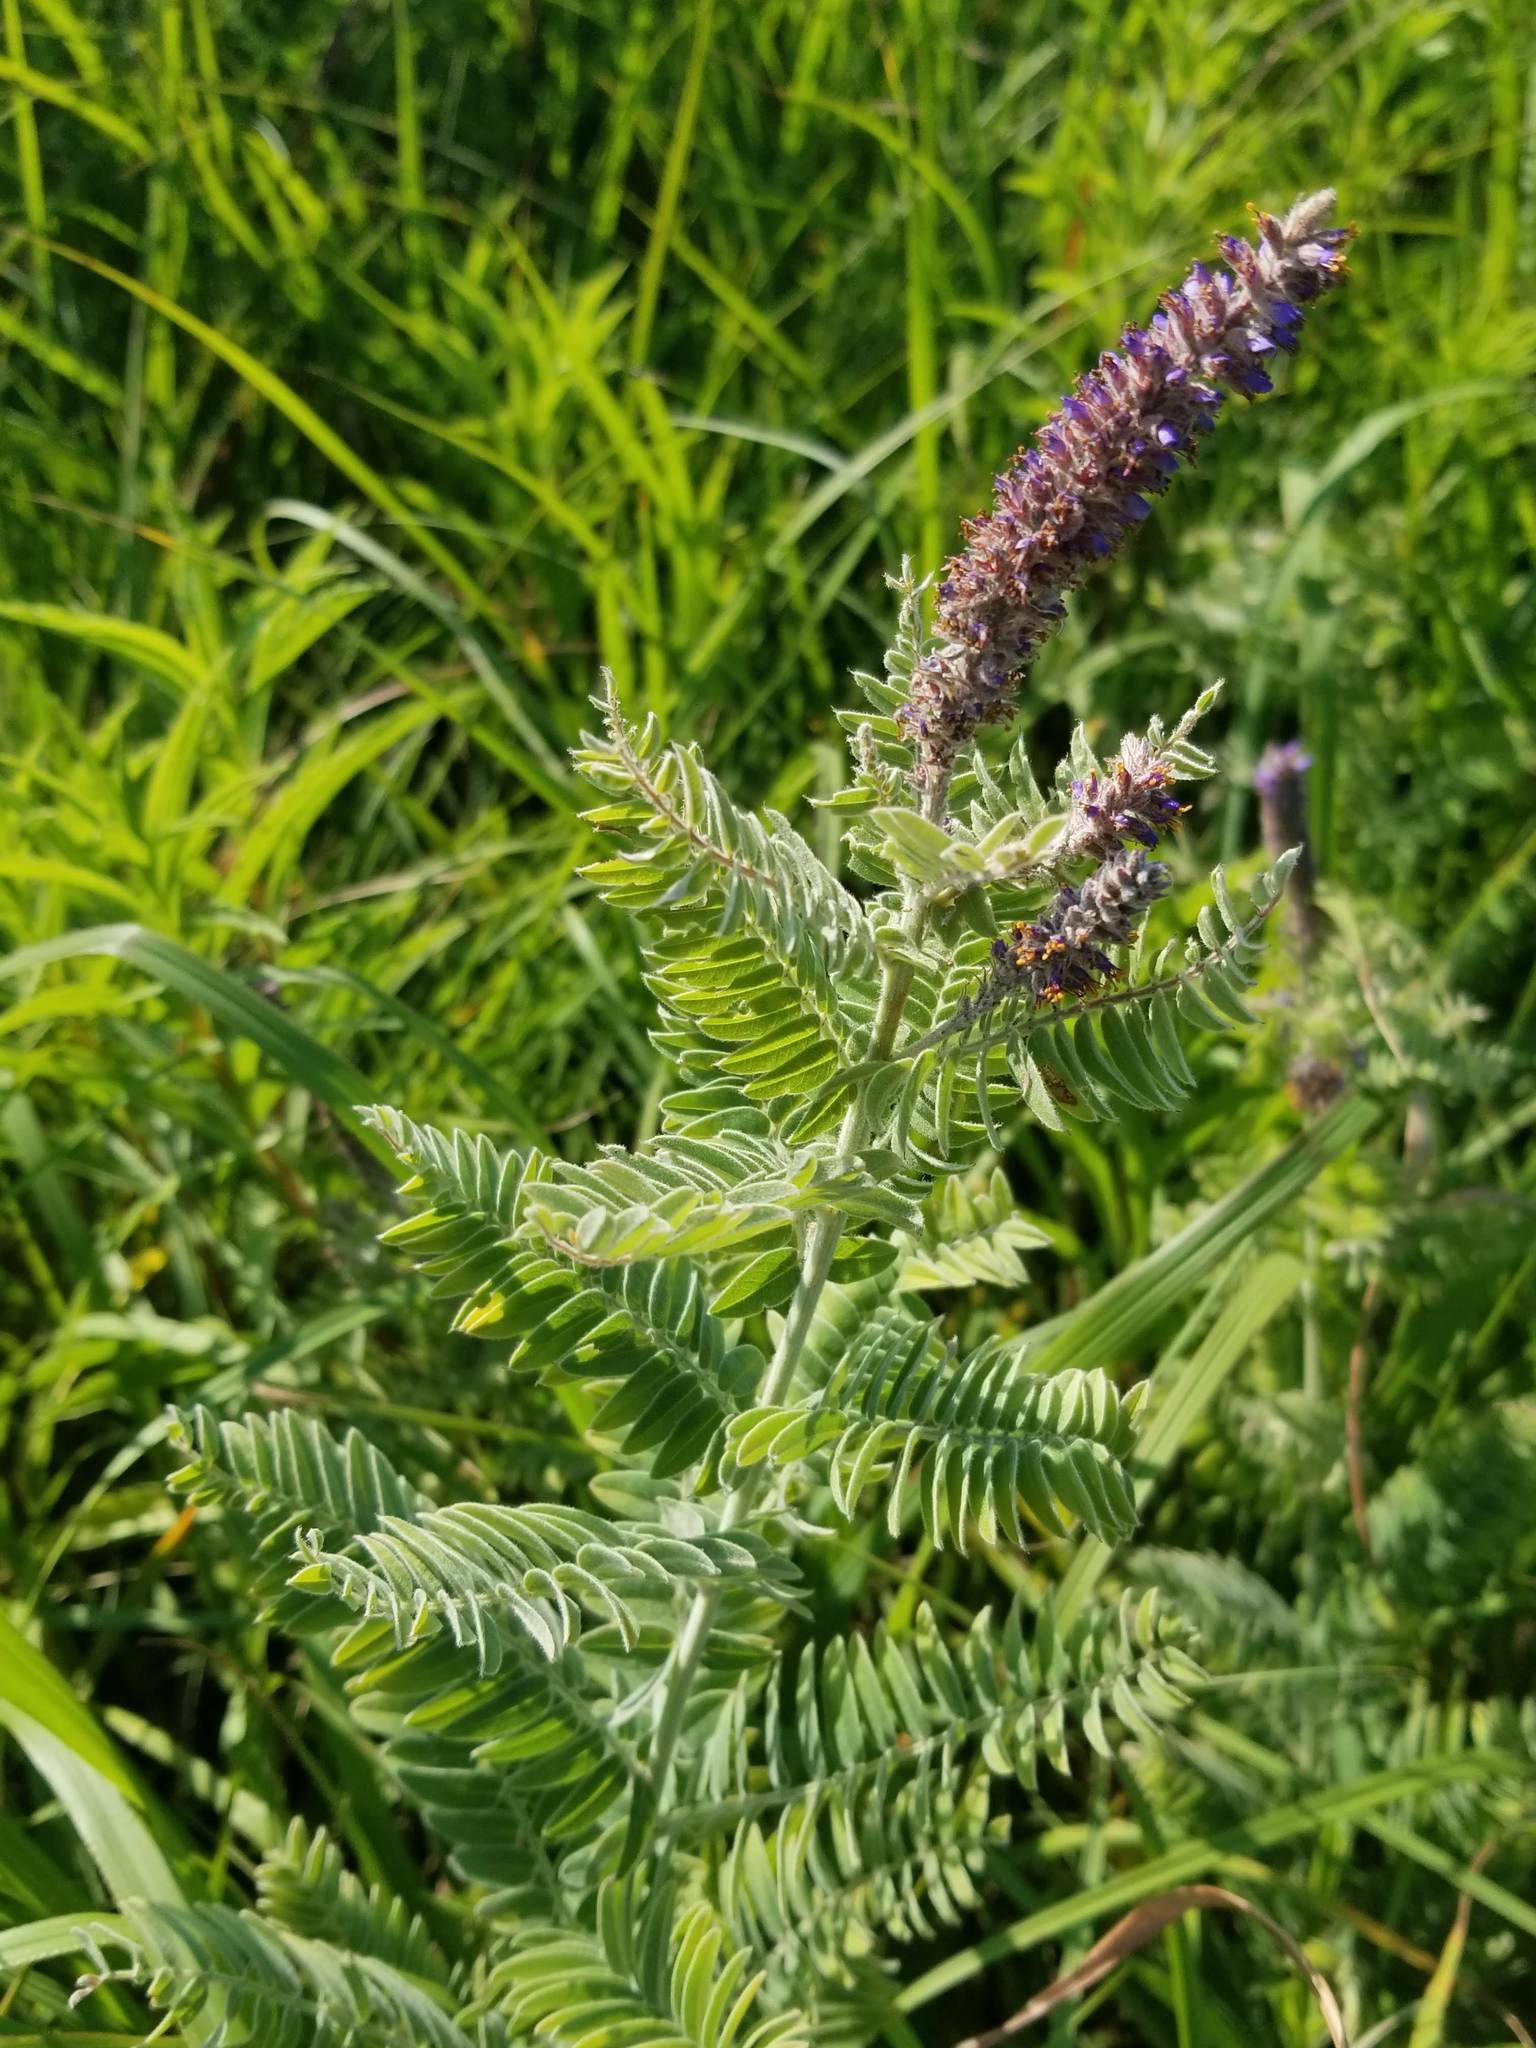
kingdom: Plantae
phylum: Tracheophyta
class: Magnoliopsida
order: Fabales
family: Fabaceae
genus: Amorpha
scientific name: Amorpha canescens
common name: Leadplant
